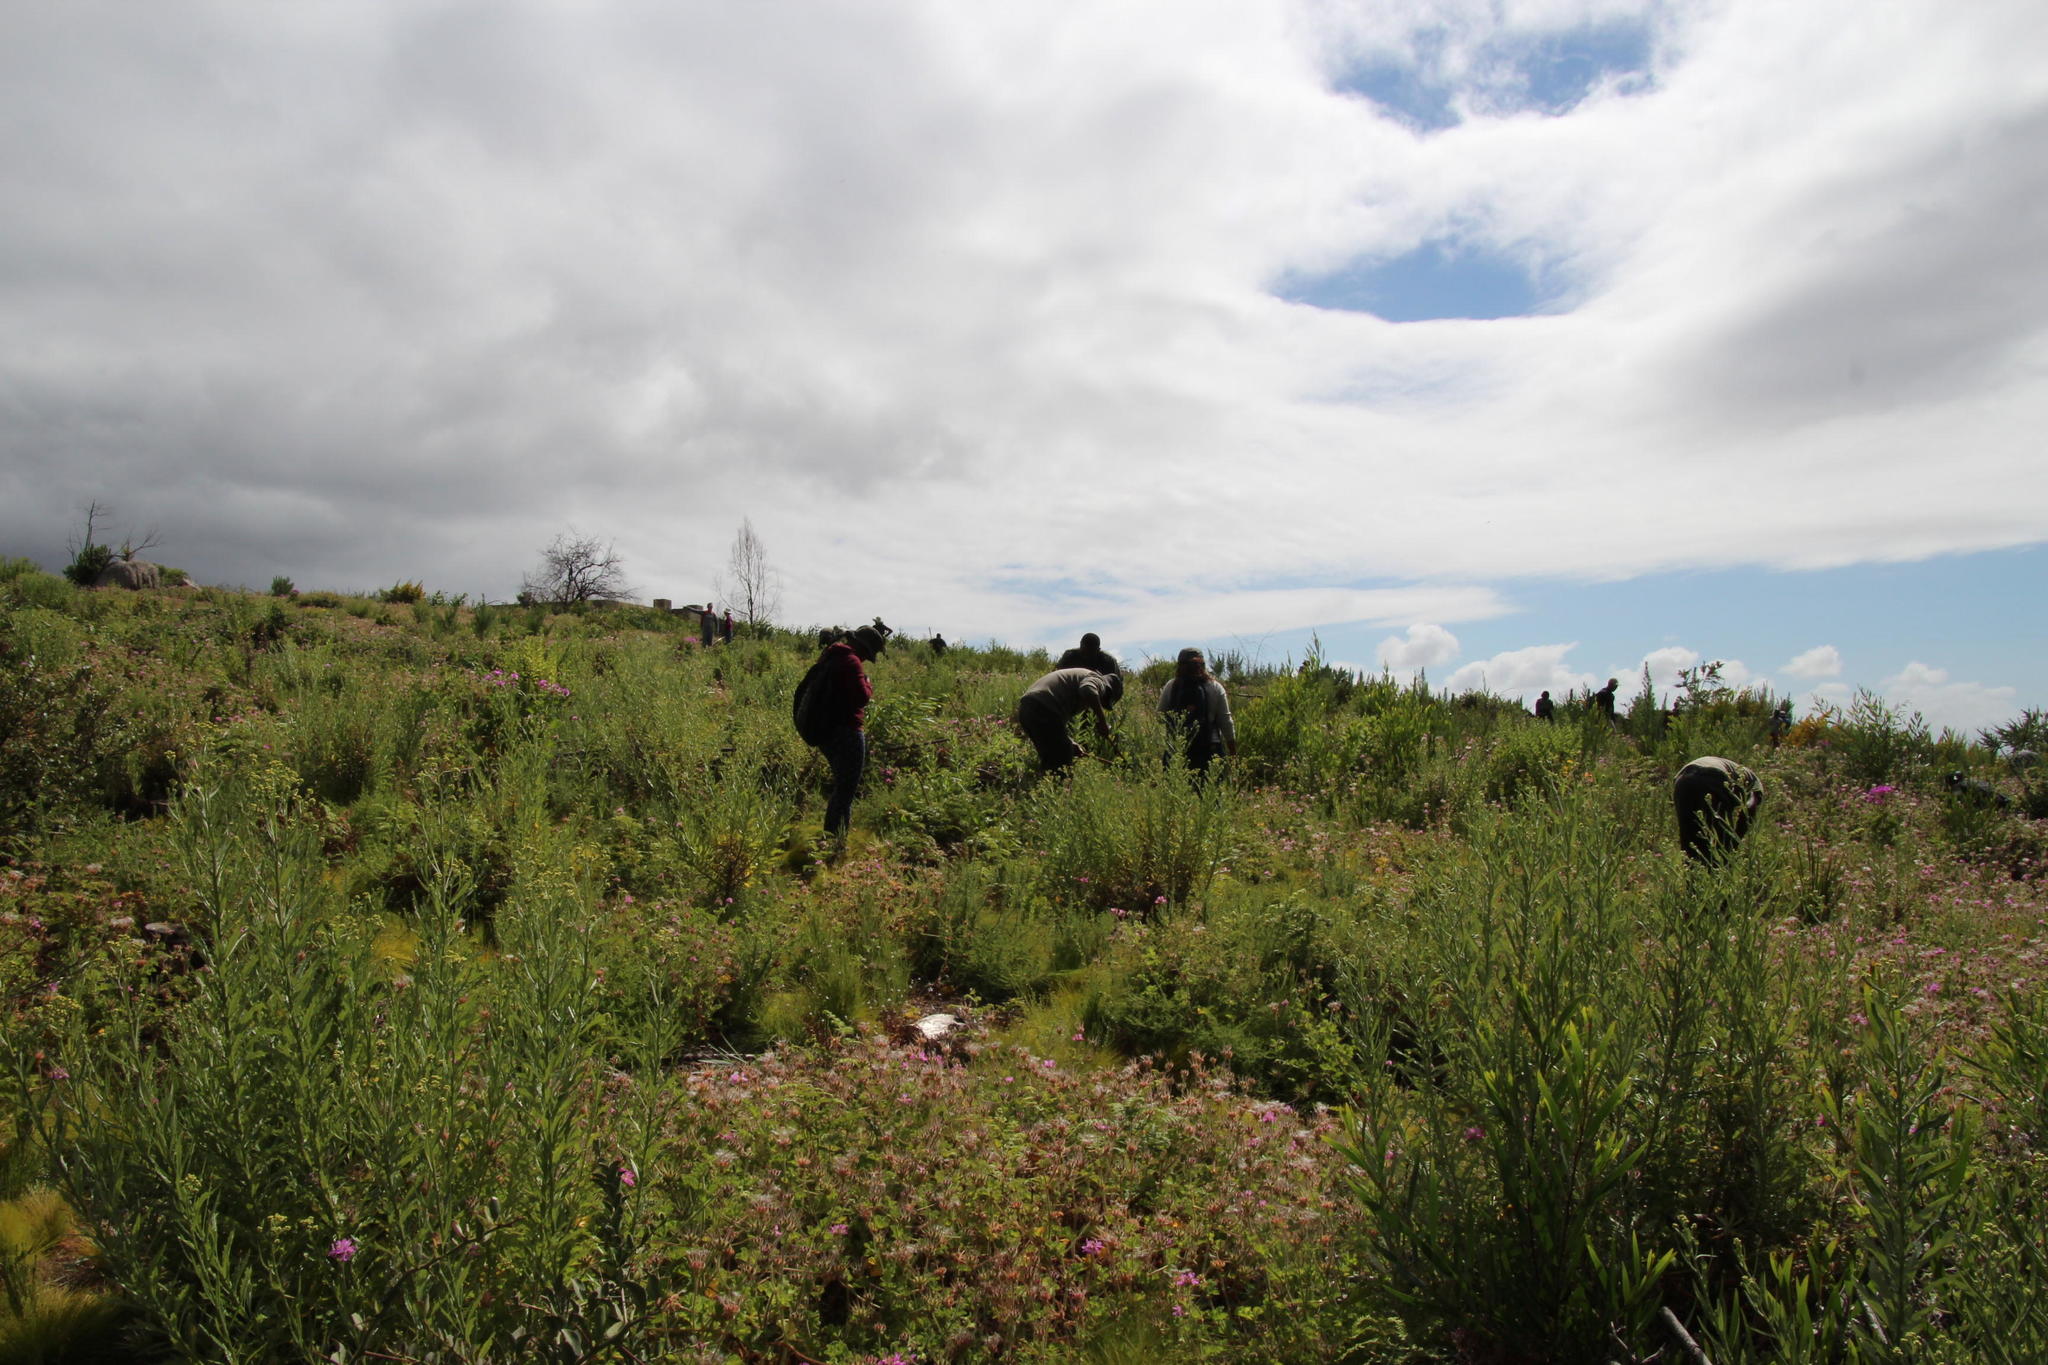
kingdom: Plantae
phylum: Tracheophyta
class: Magnoliopsida
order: Asterales
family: Asteraceae
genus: Senecio
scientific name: Senecio pterophorus
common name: Shoddy ragwort
